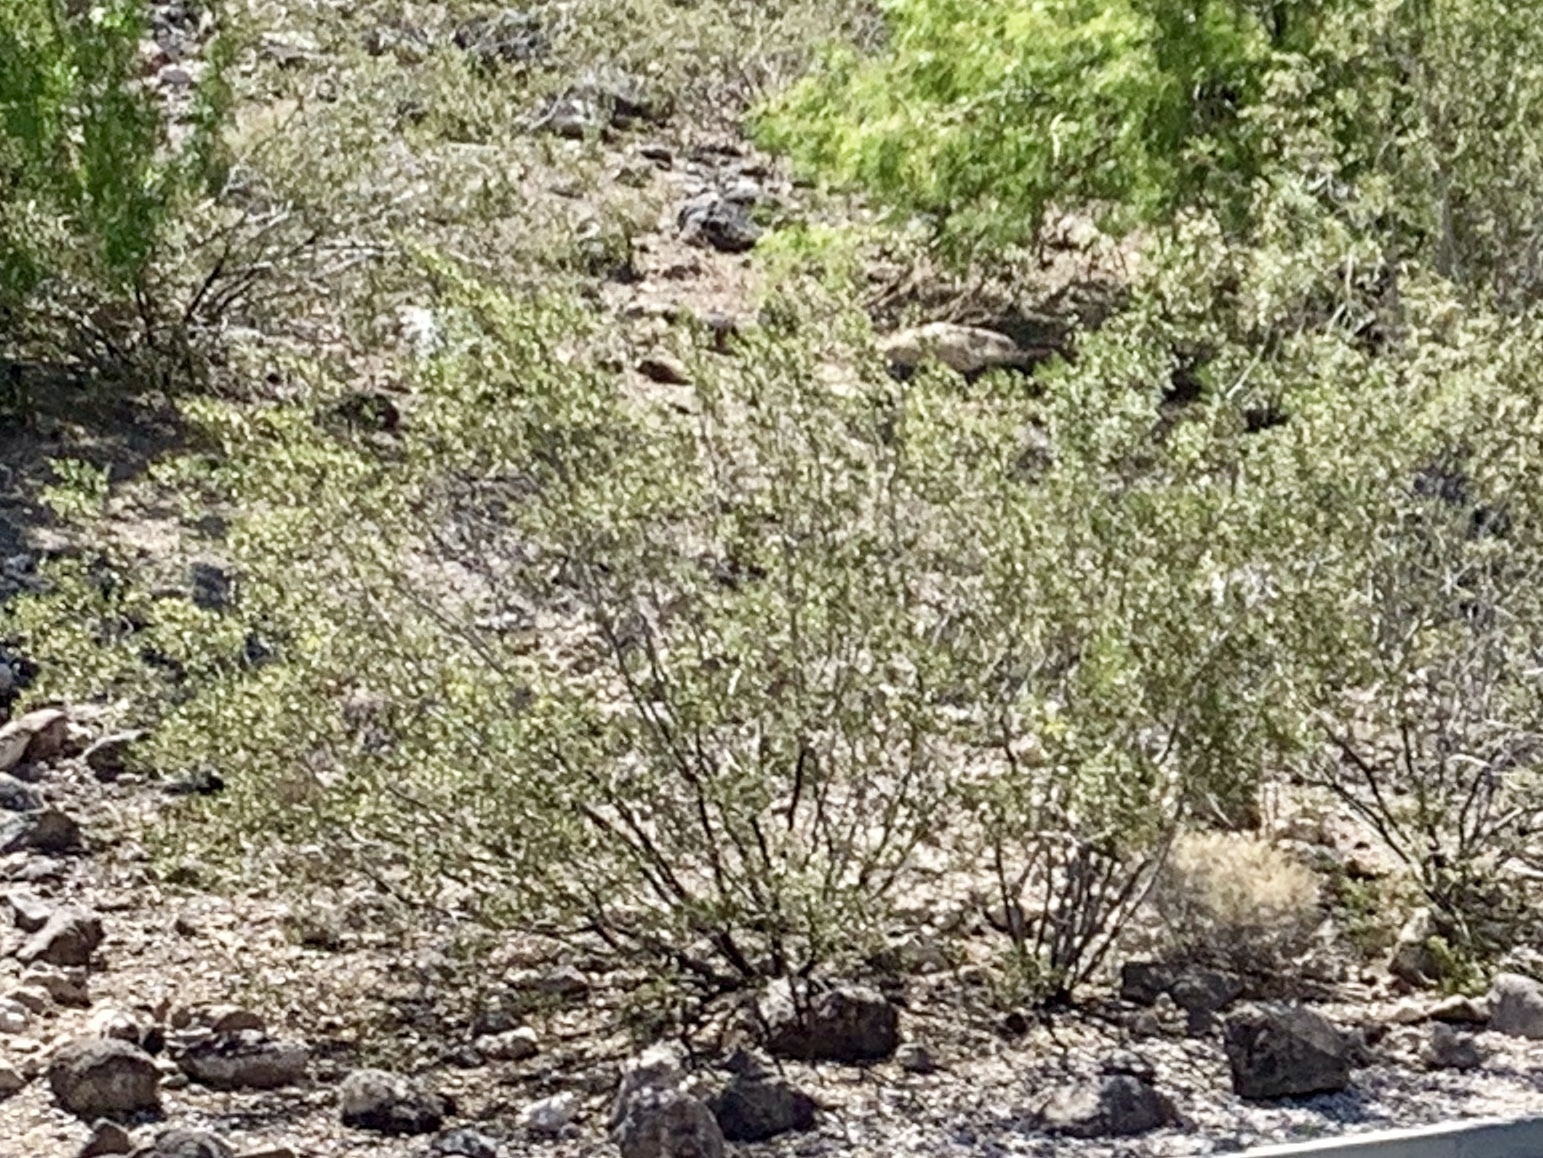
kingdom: Plantae
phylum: Tracheophyta
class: Magnoliopsida
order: Zygophyllales
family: Zygophyllaceae
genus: Larrea
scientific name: Larrea tridentata
